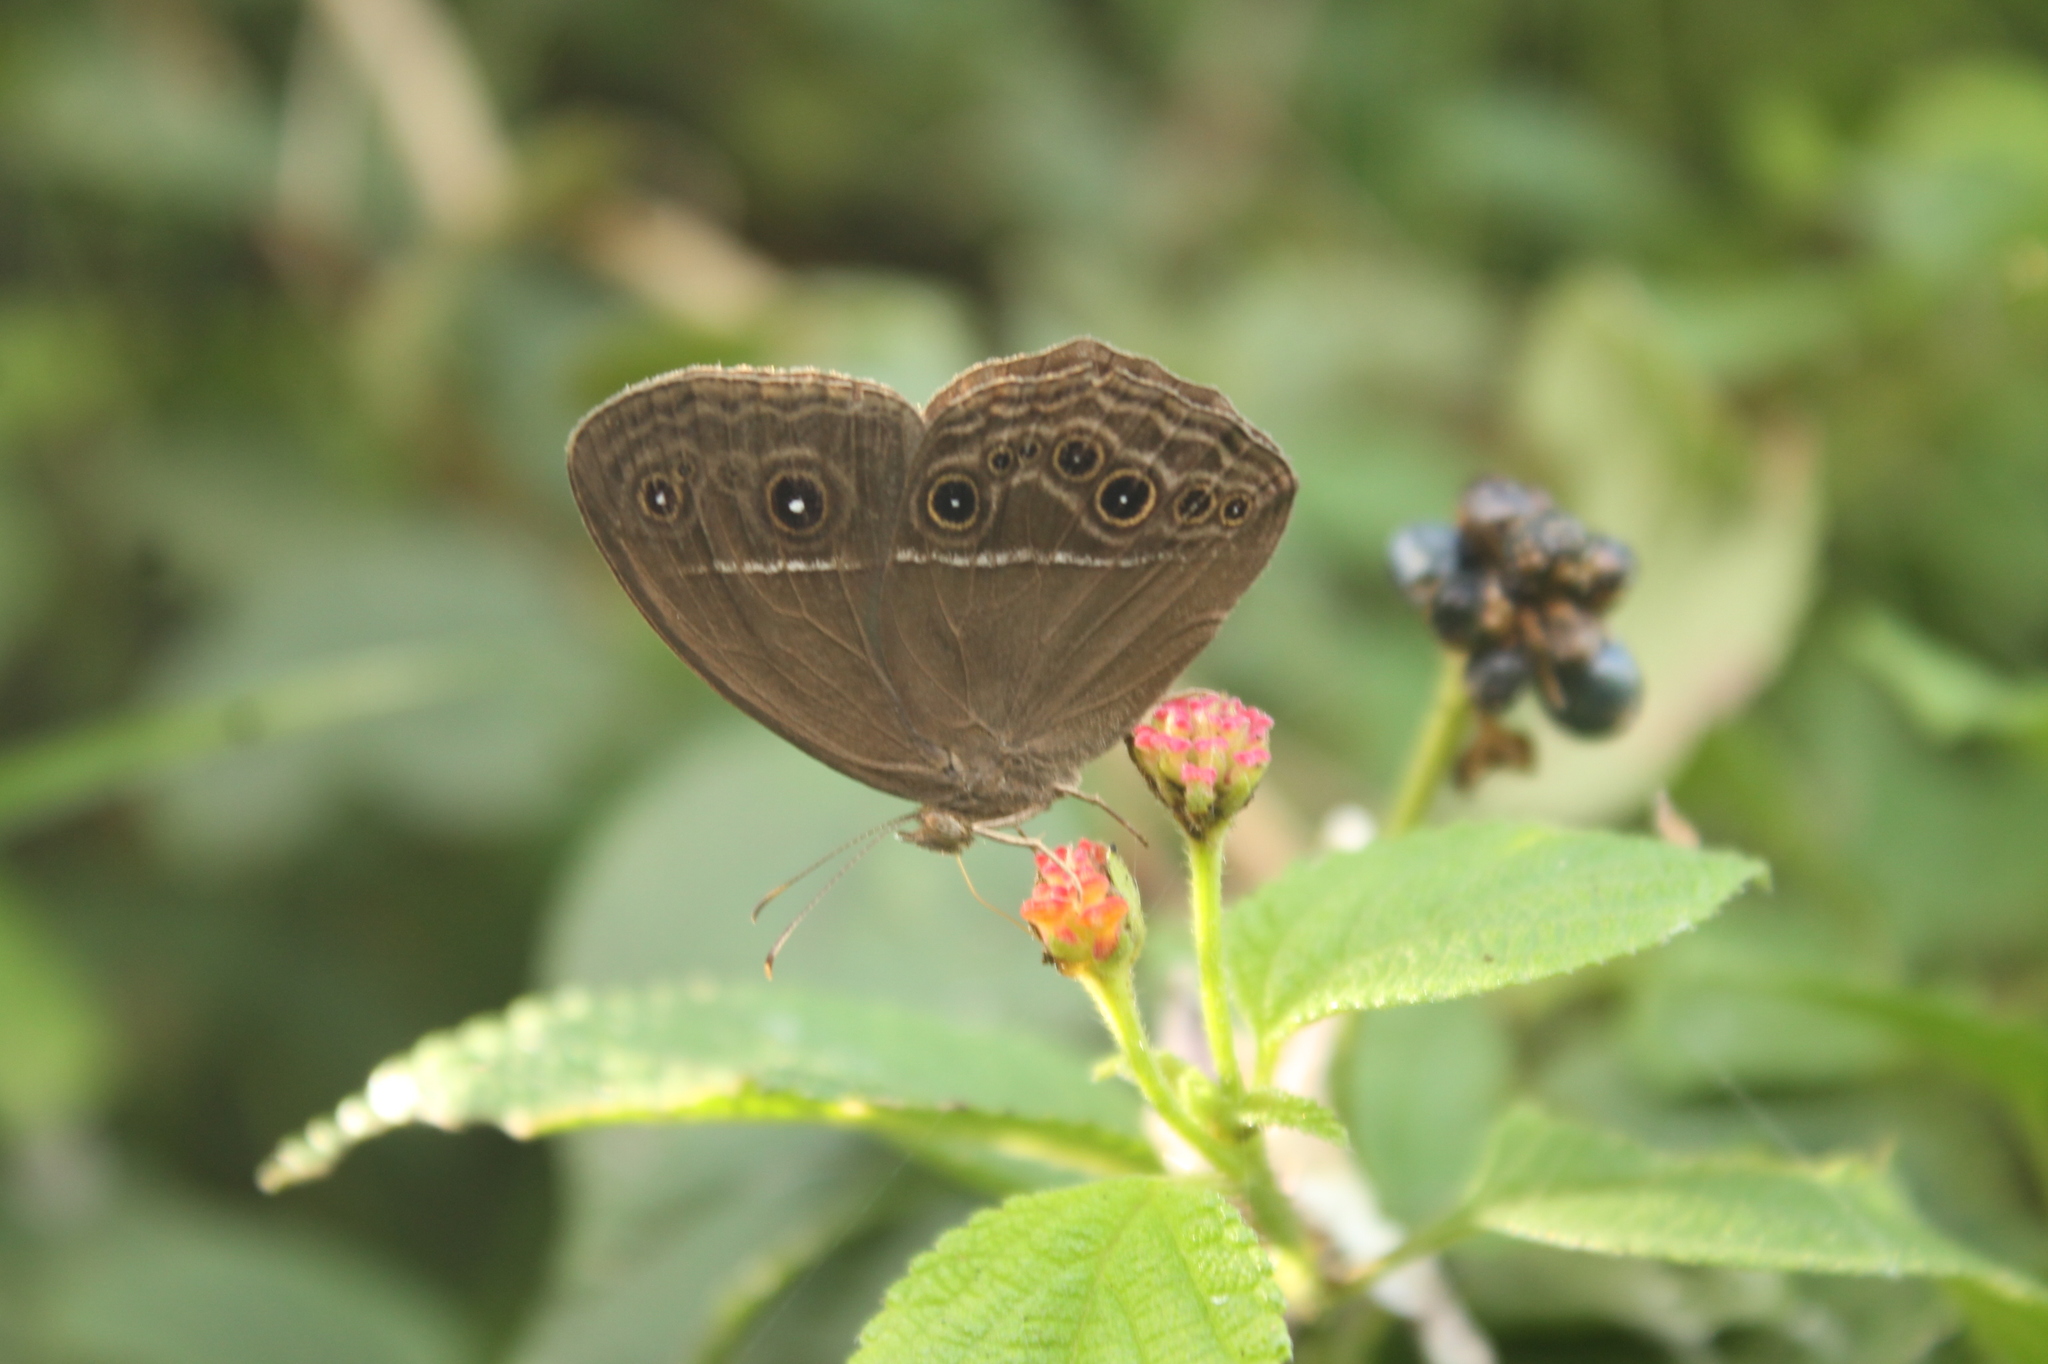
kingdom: Animalia
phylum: Arthropoda
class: Insecta
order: Lepidoptera
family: Nymphalidae
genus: Mycalesis
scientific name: Mycalesis perseus
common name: Dingy bushbrown
